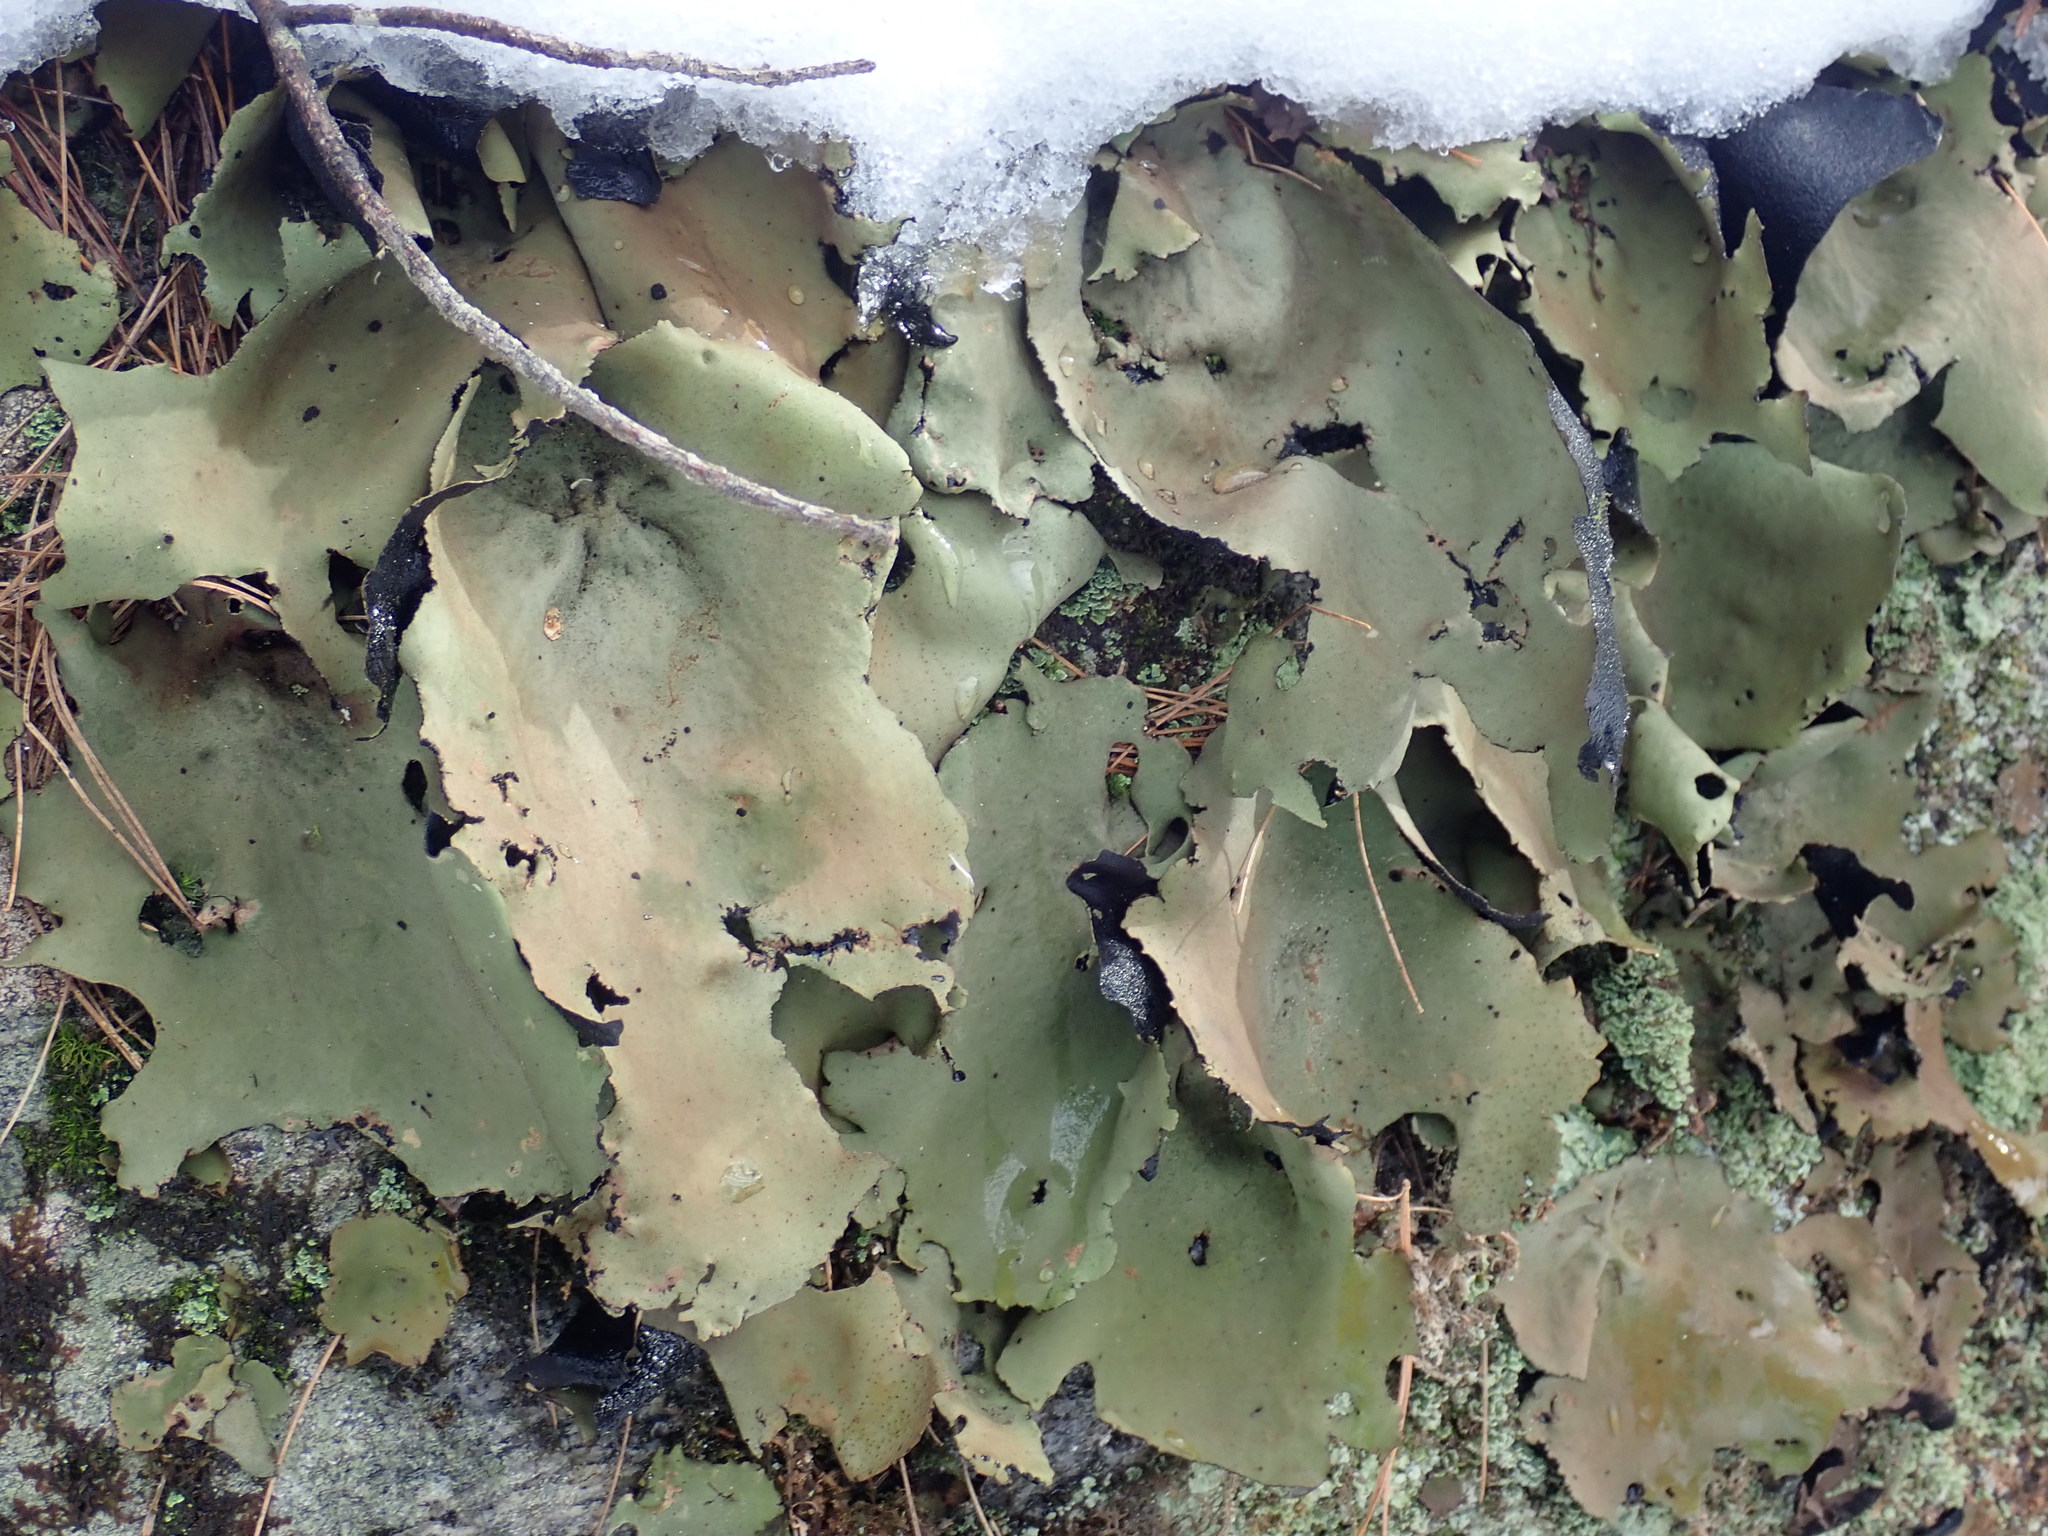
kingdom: Fungi
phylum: Ascomycota
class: Lecanoromycetes
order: Umbilicariales
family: Umbilicariaceae
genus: Umbilicaria
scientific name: Umbilicaria mammulata
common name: Smooth rock tripe
